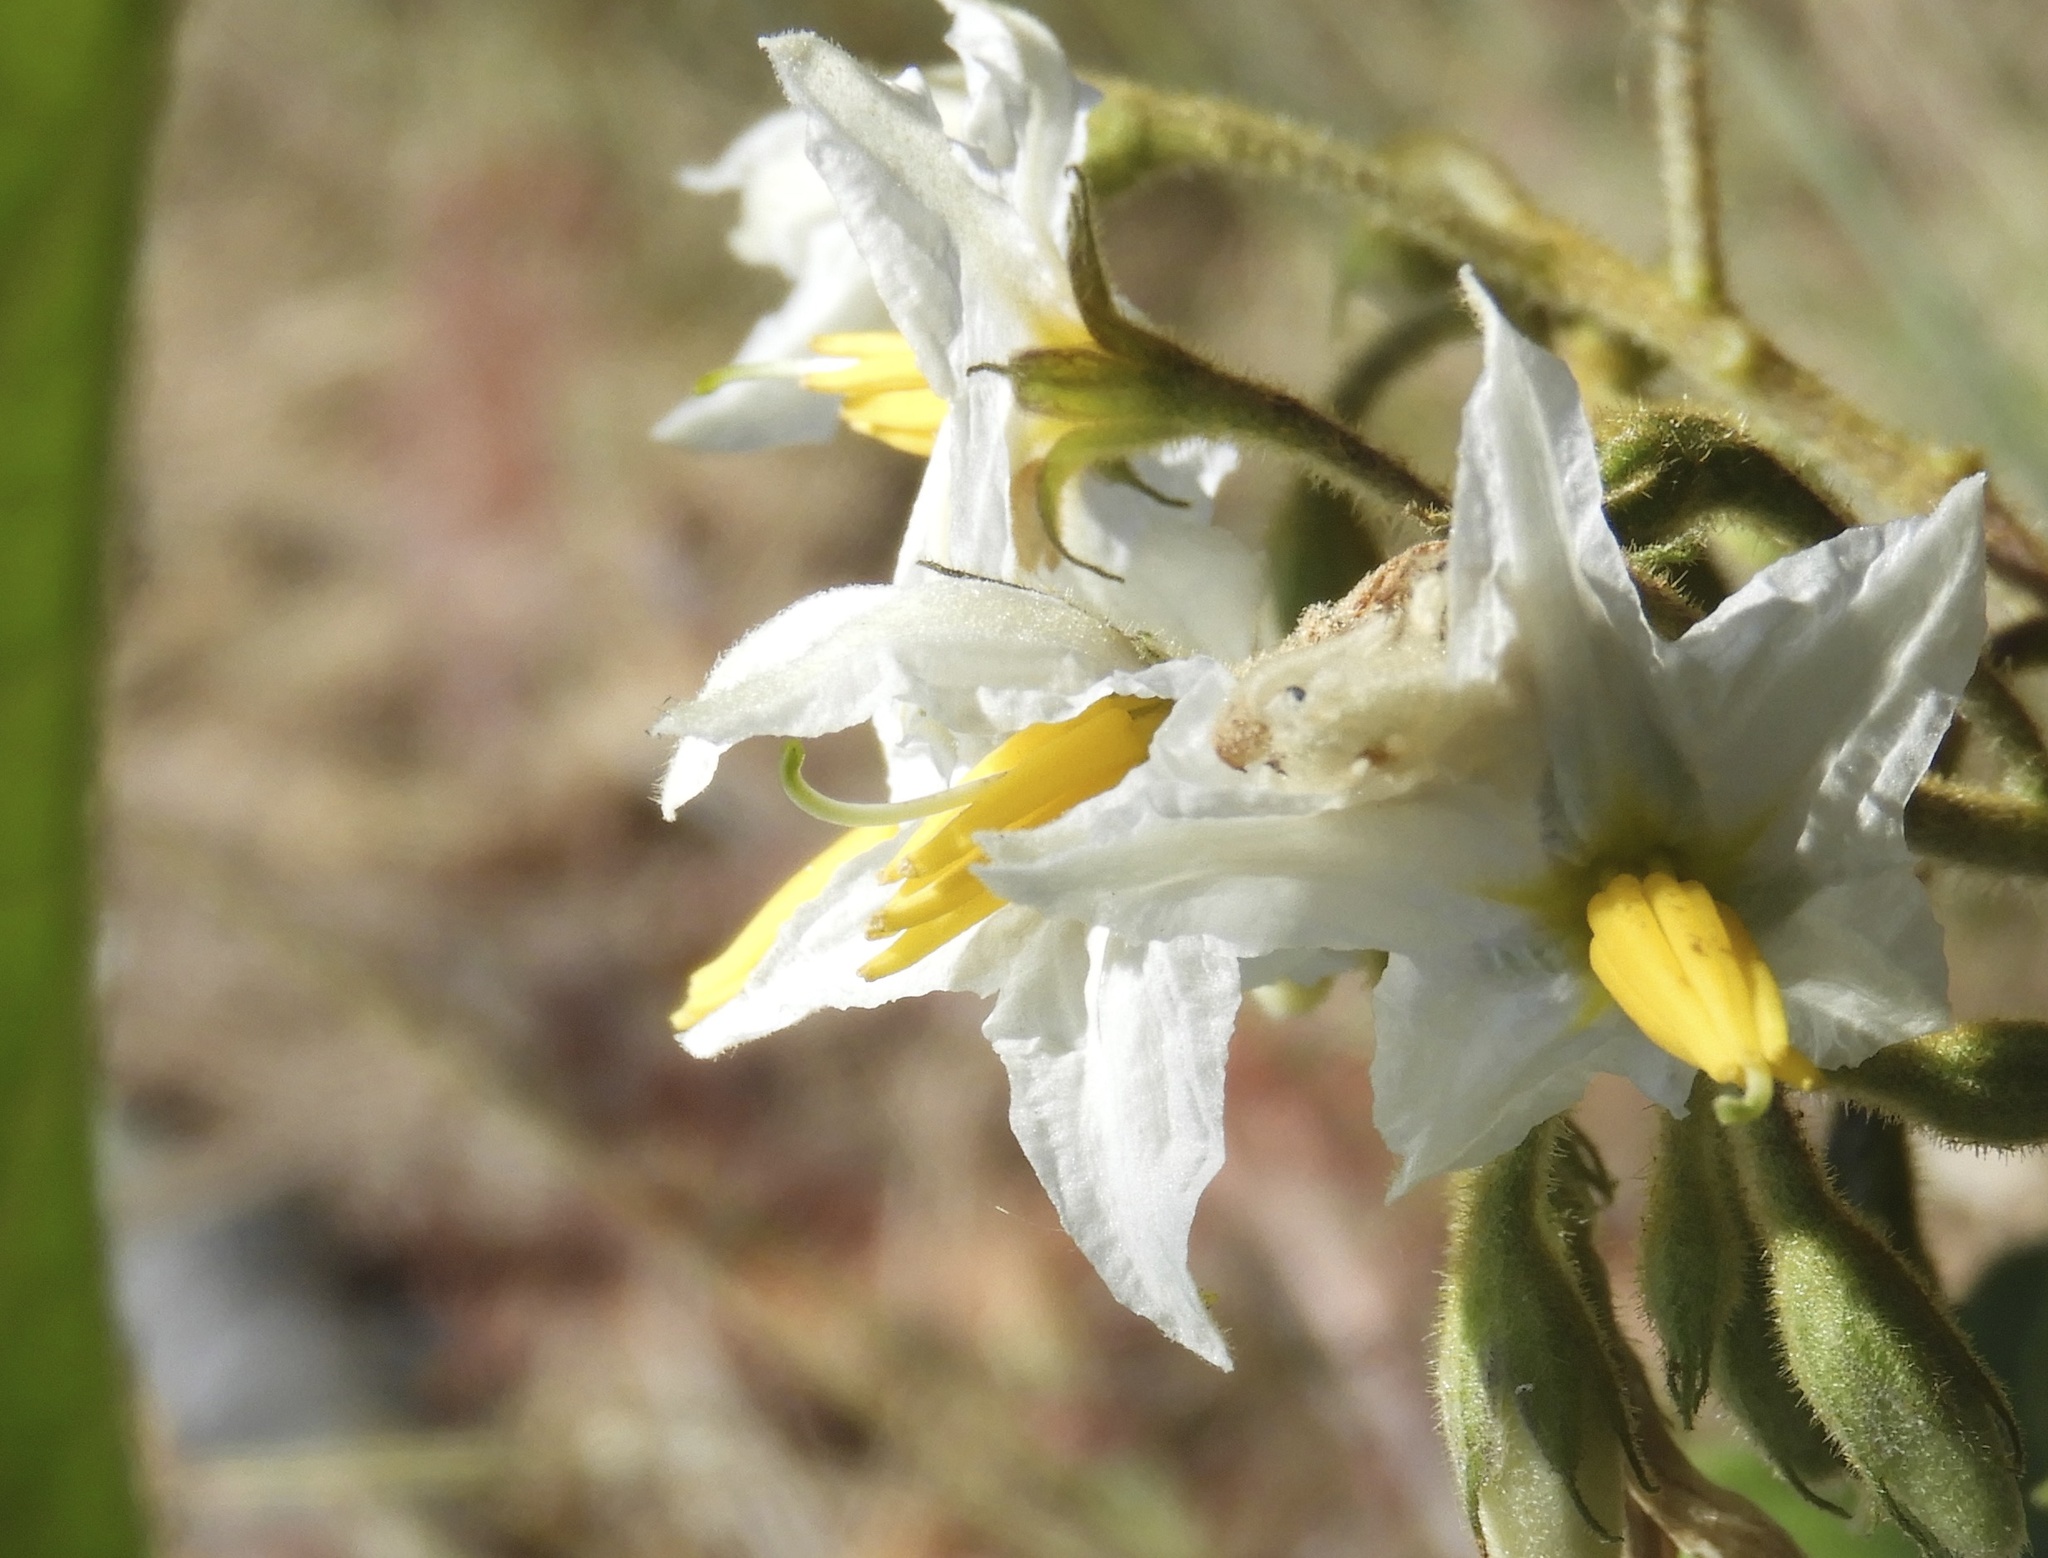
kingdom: Plantae
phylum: Tracheophyta
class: Magnoliopsida
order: Solanales
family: Solanaceae
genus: Solanum
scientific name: Solanum ferrugineum
